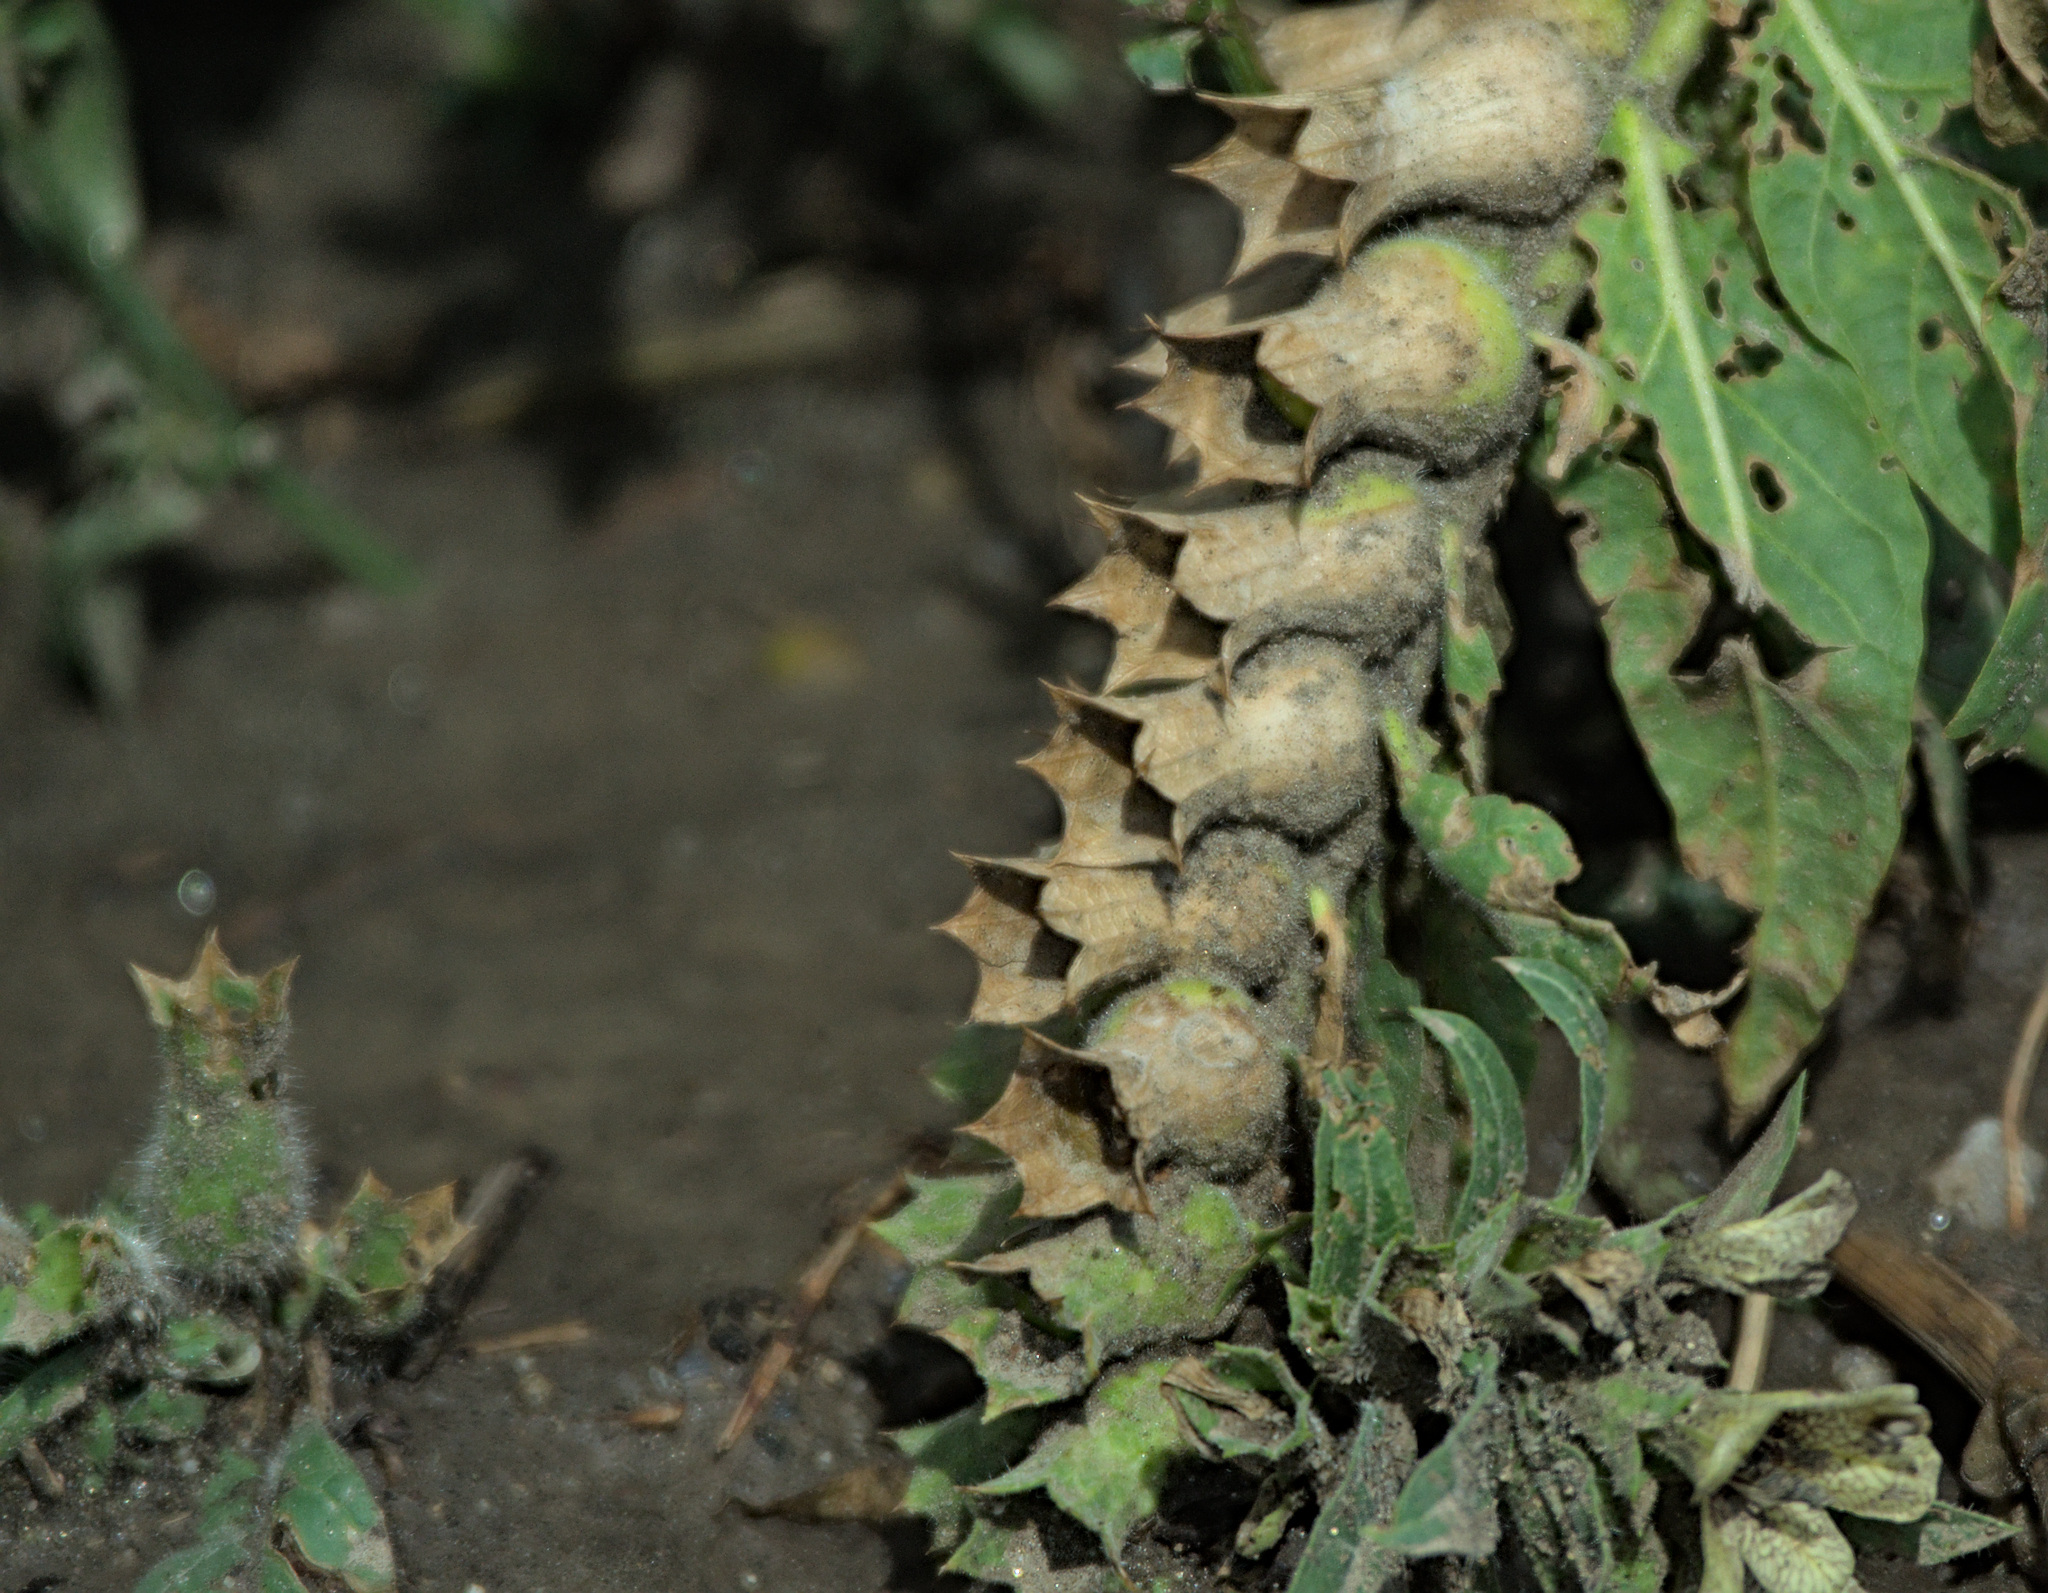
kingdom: Plantae
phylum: Tracheophyta
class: Magnoliopsida
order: Solanales
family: Solanaceae
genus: Hyoscyamus
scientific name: Hyoscyamus niger
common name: Henbane
